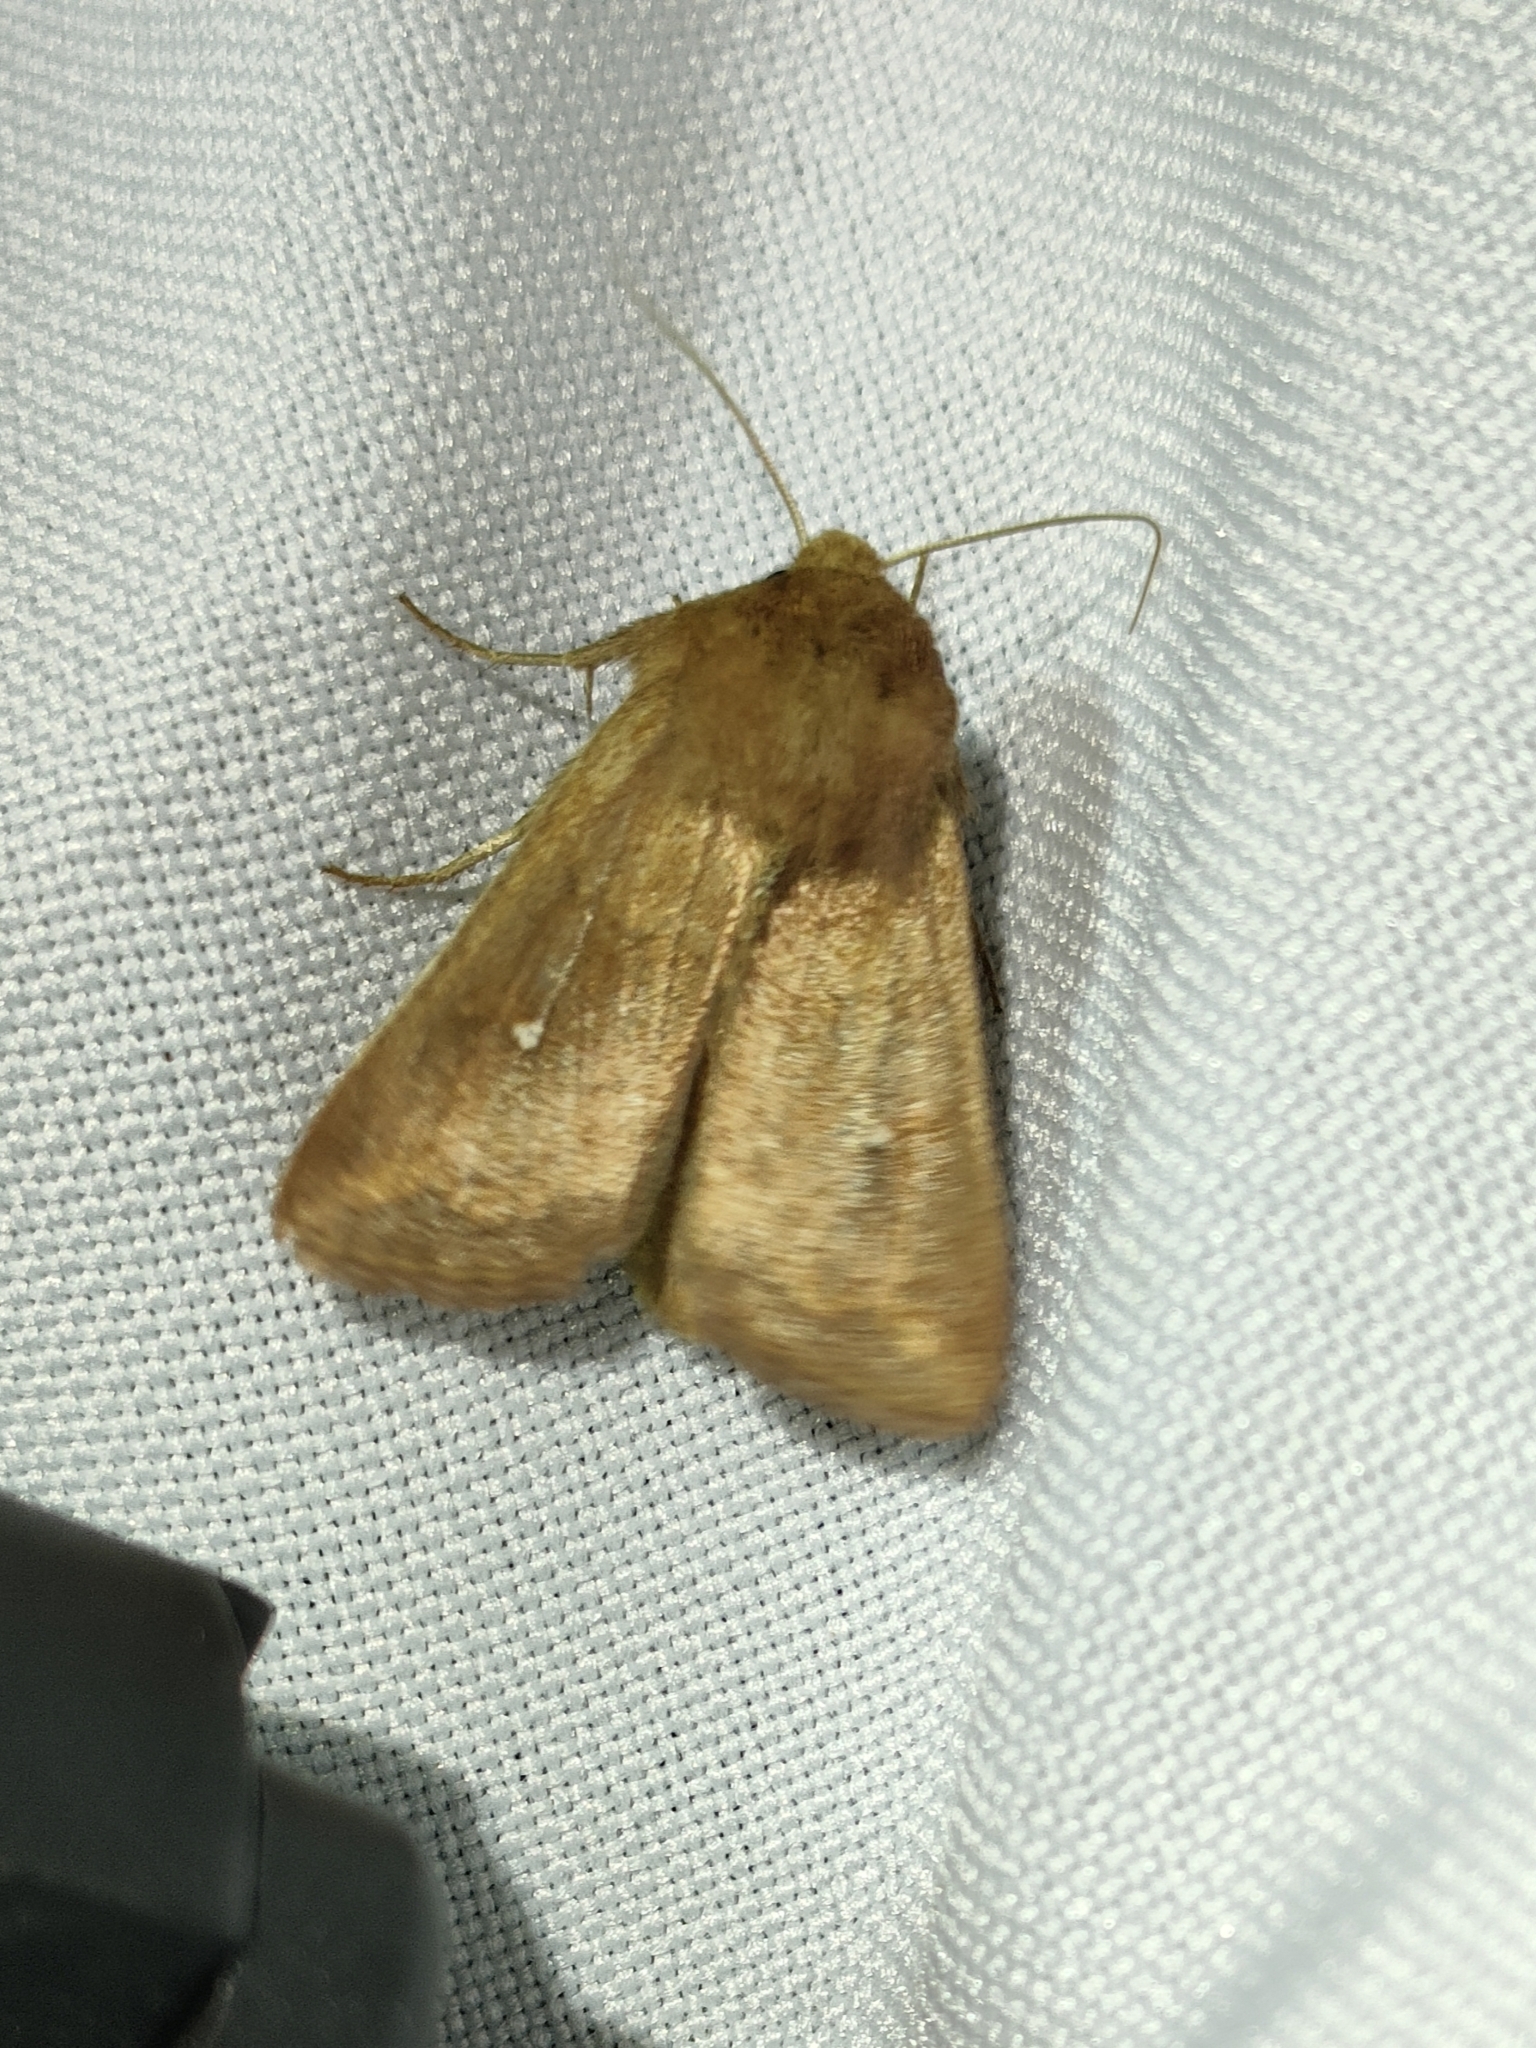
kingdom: Animalia
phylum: Arthropoda
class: Insecta
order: Lepidoptera
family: Noctuidae
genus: Mythimna
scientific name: Mythimna albipuncta
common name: White-point
